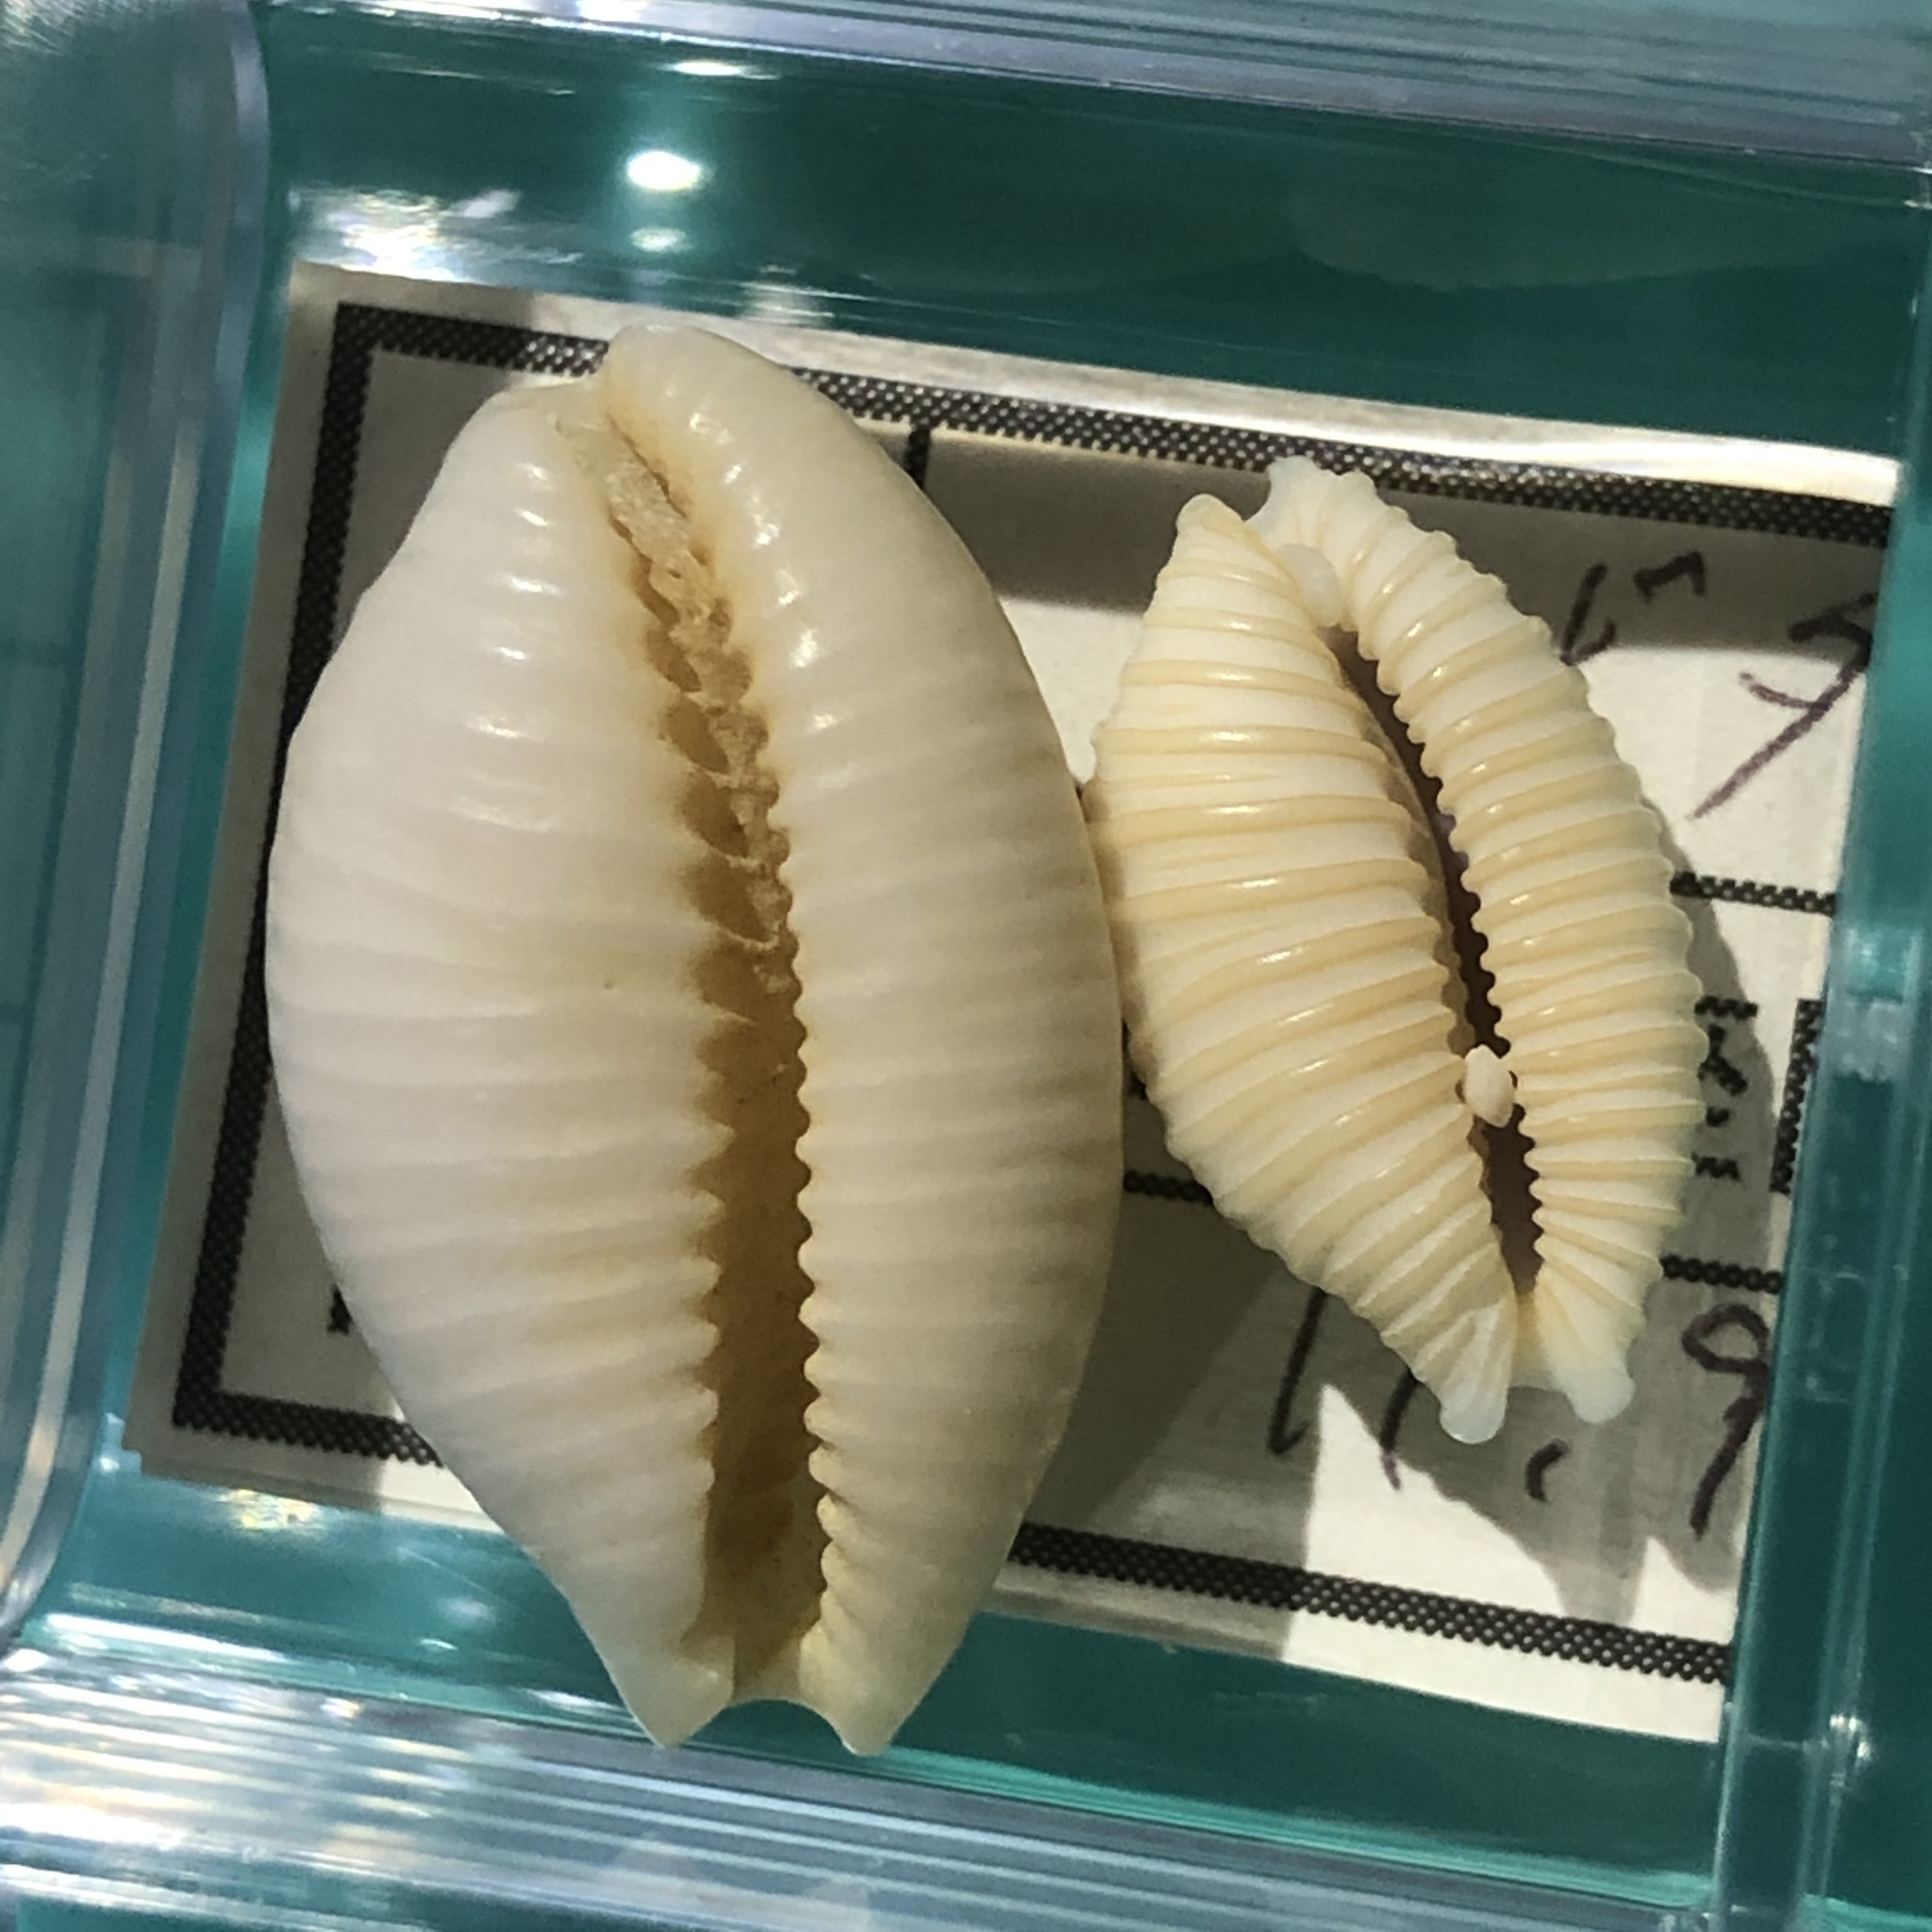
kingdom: Animalia
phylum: Mollusca
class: Gastropoda
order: Littorinimorpha
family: Cypraeidae
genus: Nucleolaria
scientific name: Nucleolaria nucleus
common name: Kernel cowry
